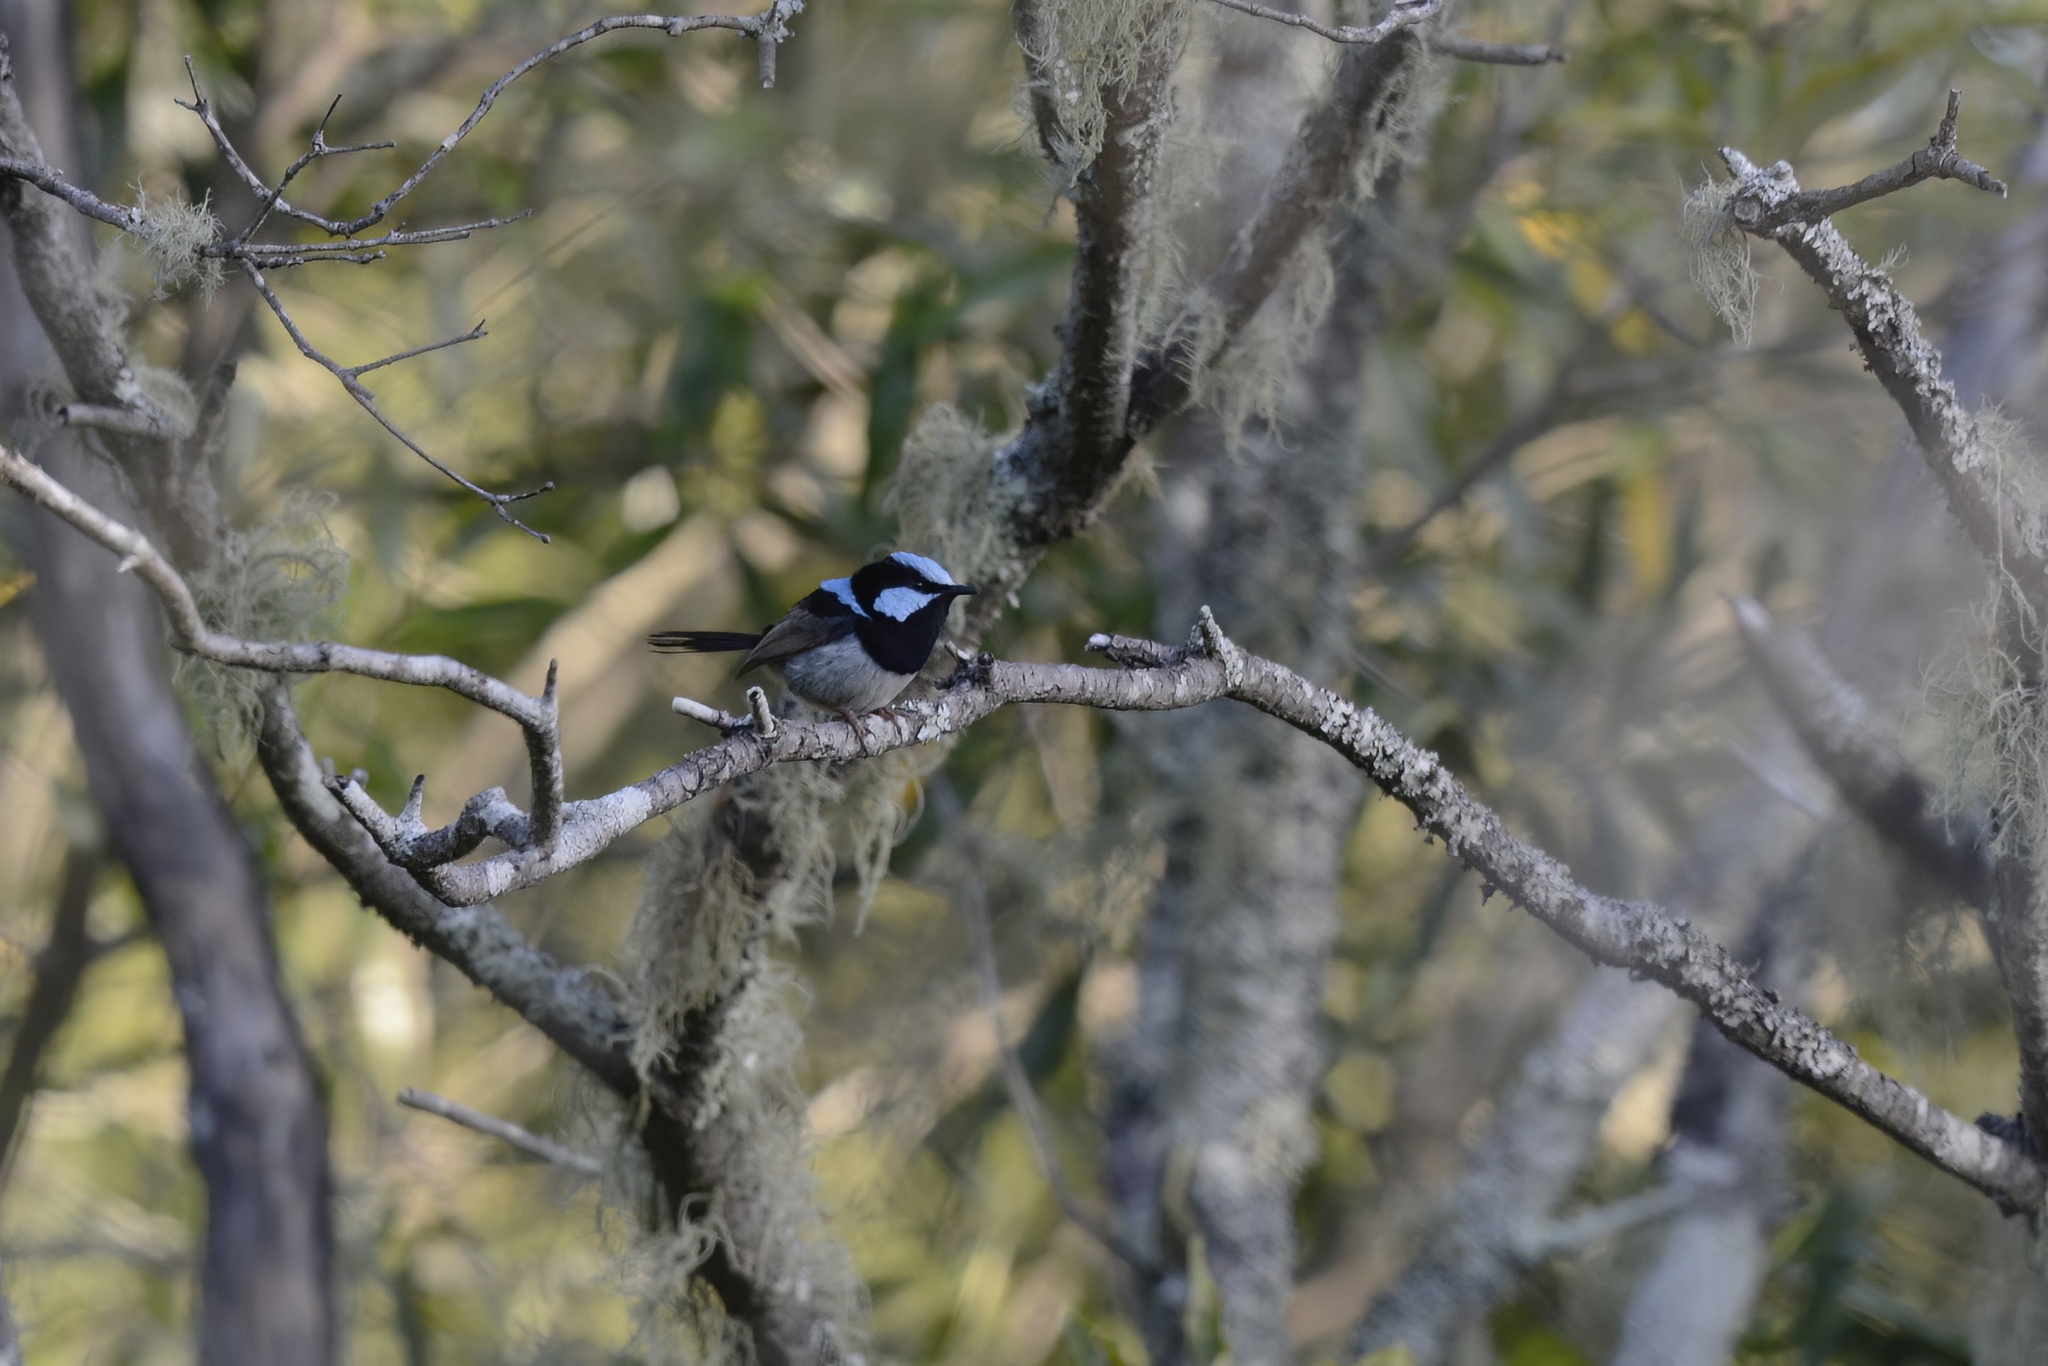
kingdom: Animalia
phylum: Chordata
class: Aves
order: Passeriformes
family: Maluridae
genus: Malurus
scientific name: Malurus cyaneus
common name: Superb fairywren
